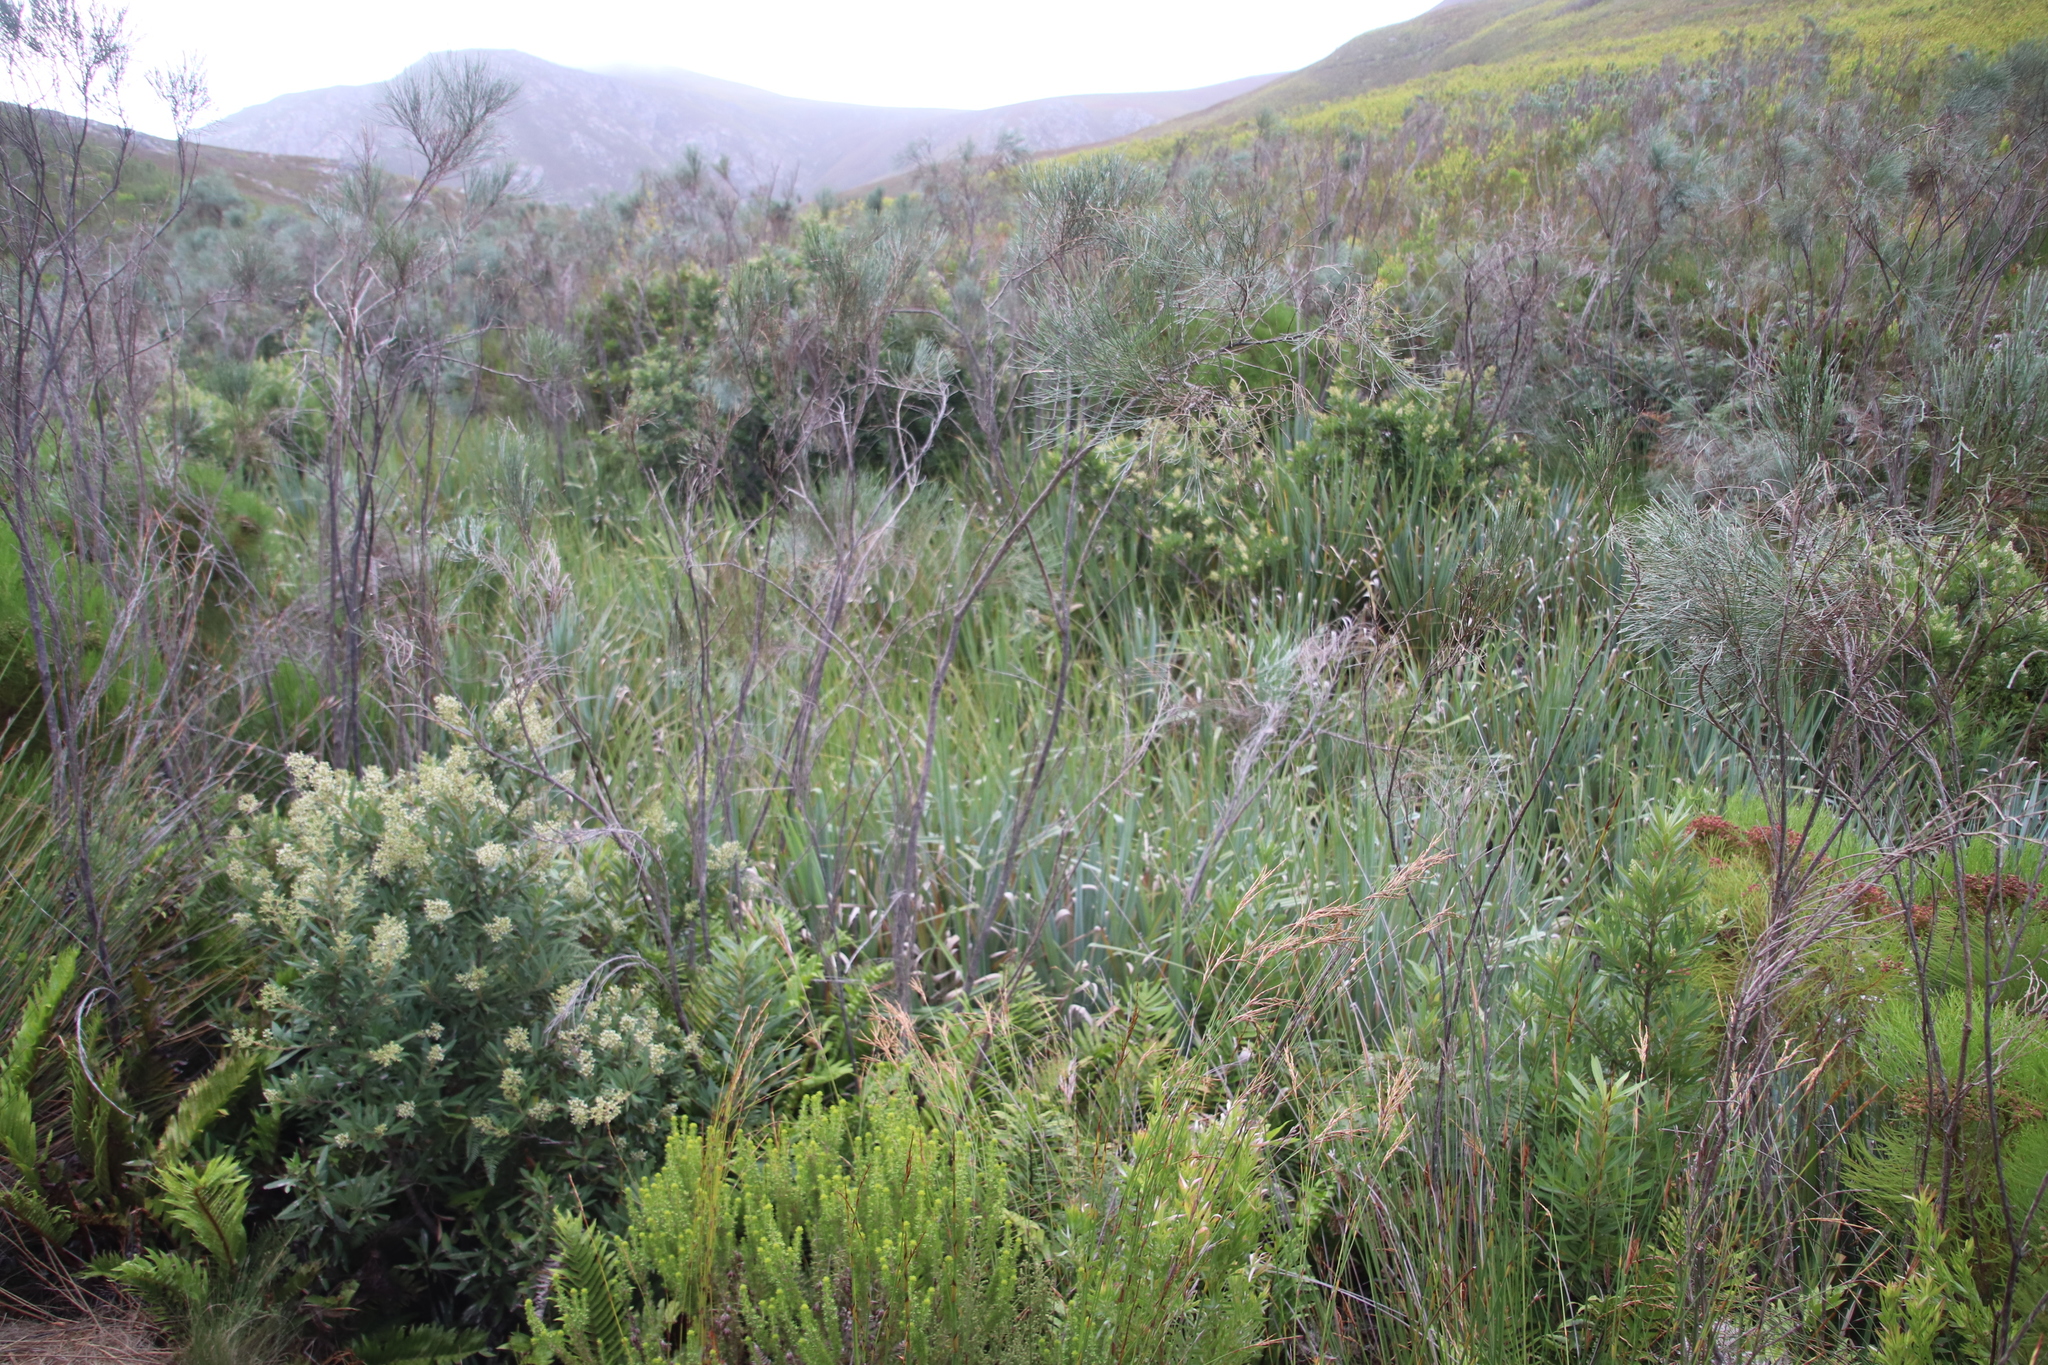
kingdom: Plantae
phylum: Tracheophyta
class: Magnoliopsida
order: Fabales
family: Fabaceae
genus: Psoralea
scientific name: Psoralea pullata
